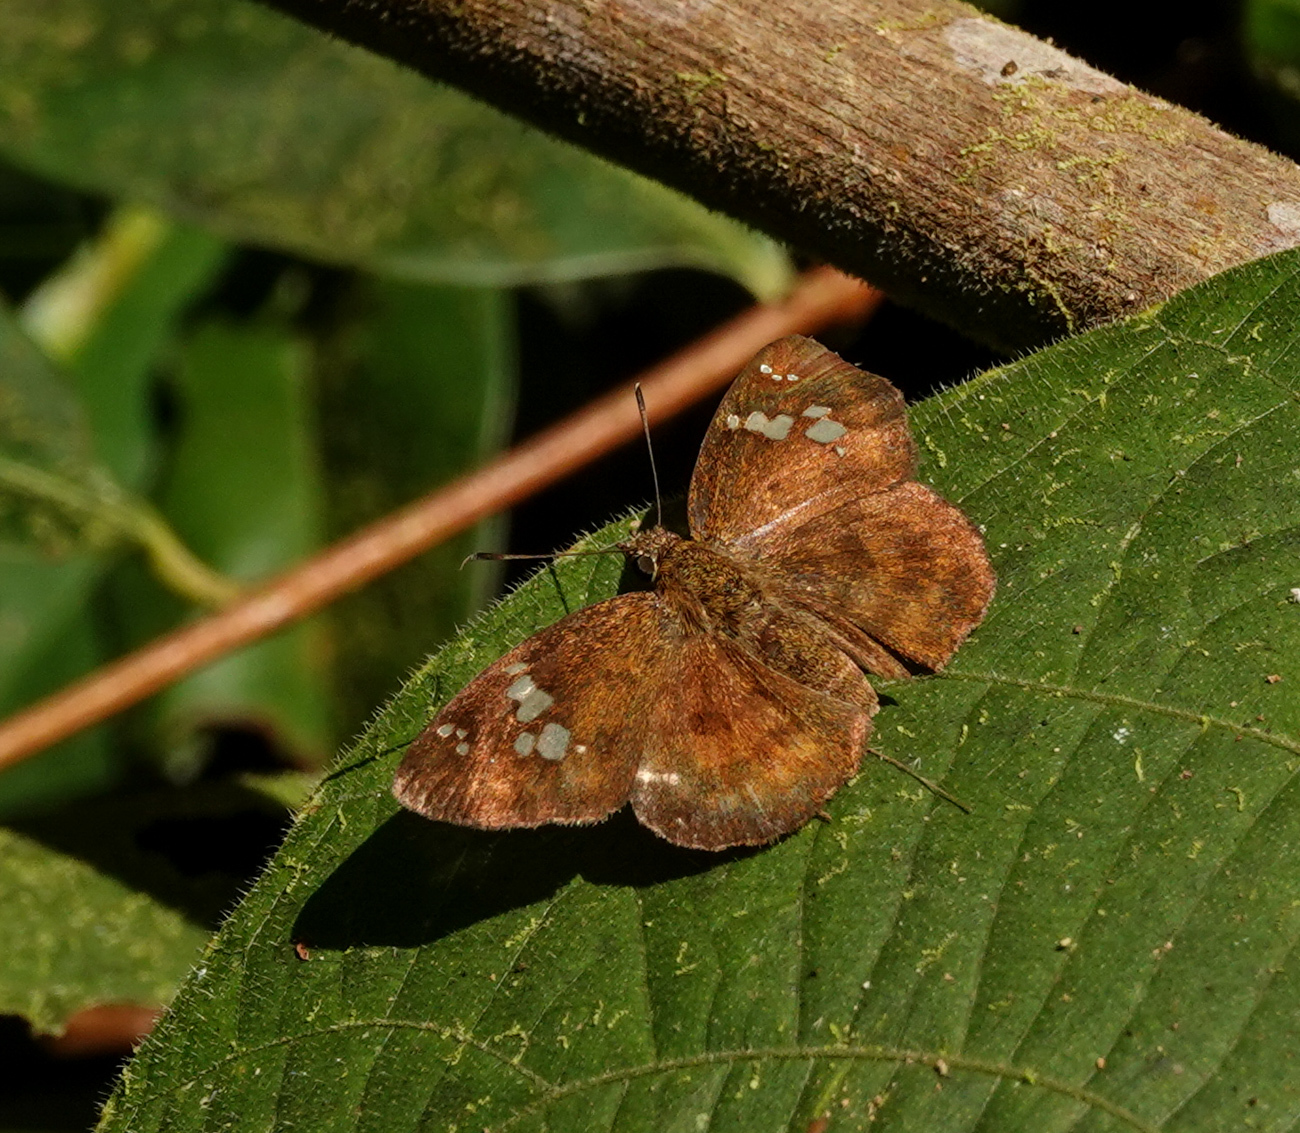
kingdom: Animalia
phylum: Arthropoda
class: Insecta
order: Lepidoptera
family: Hesperiidae
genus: Pseudocoladenia
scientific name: Pseudocoladenia dan
